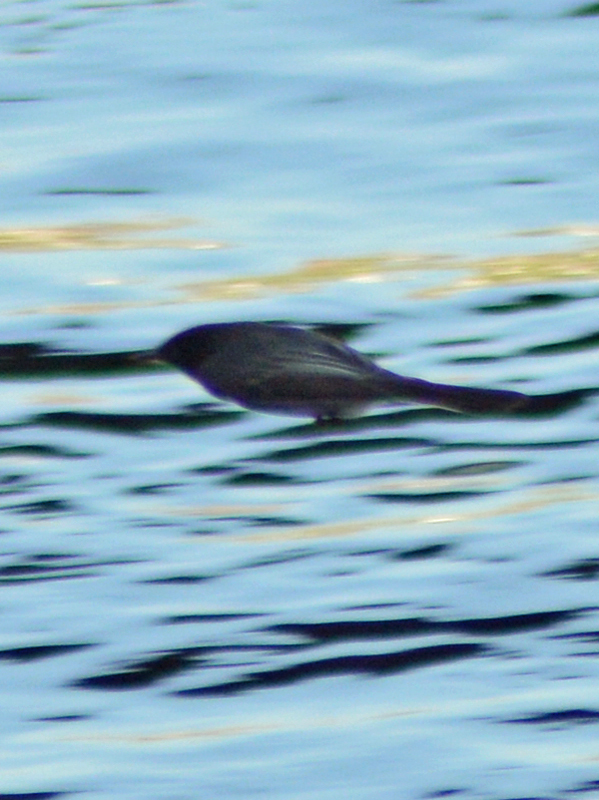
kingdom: Animalia
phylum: Chordata
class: Aves
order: Passeriformes
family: Tyrannidae
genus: Sayornis
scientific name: Sayornis nigricans
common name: Black phoebe
